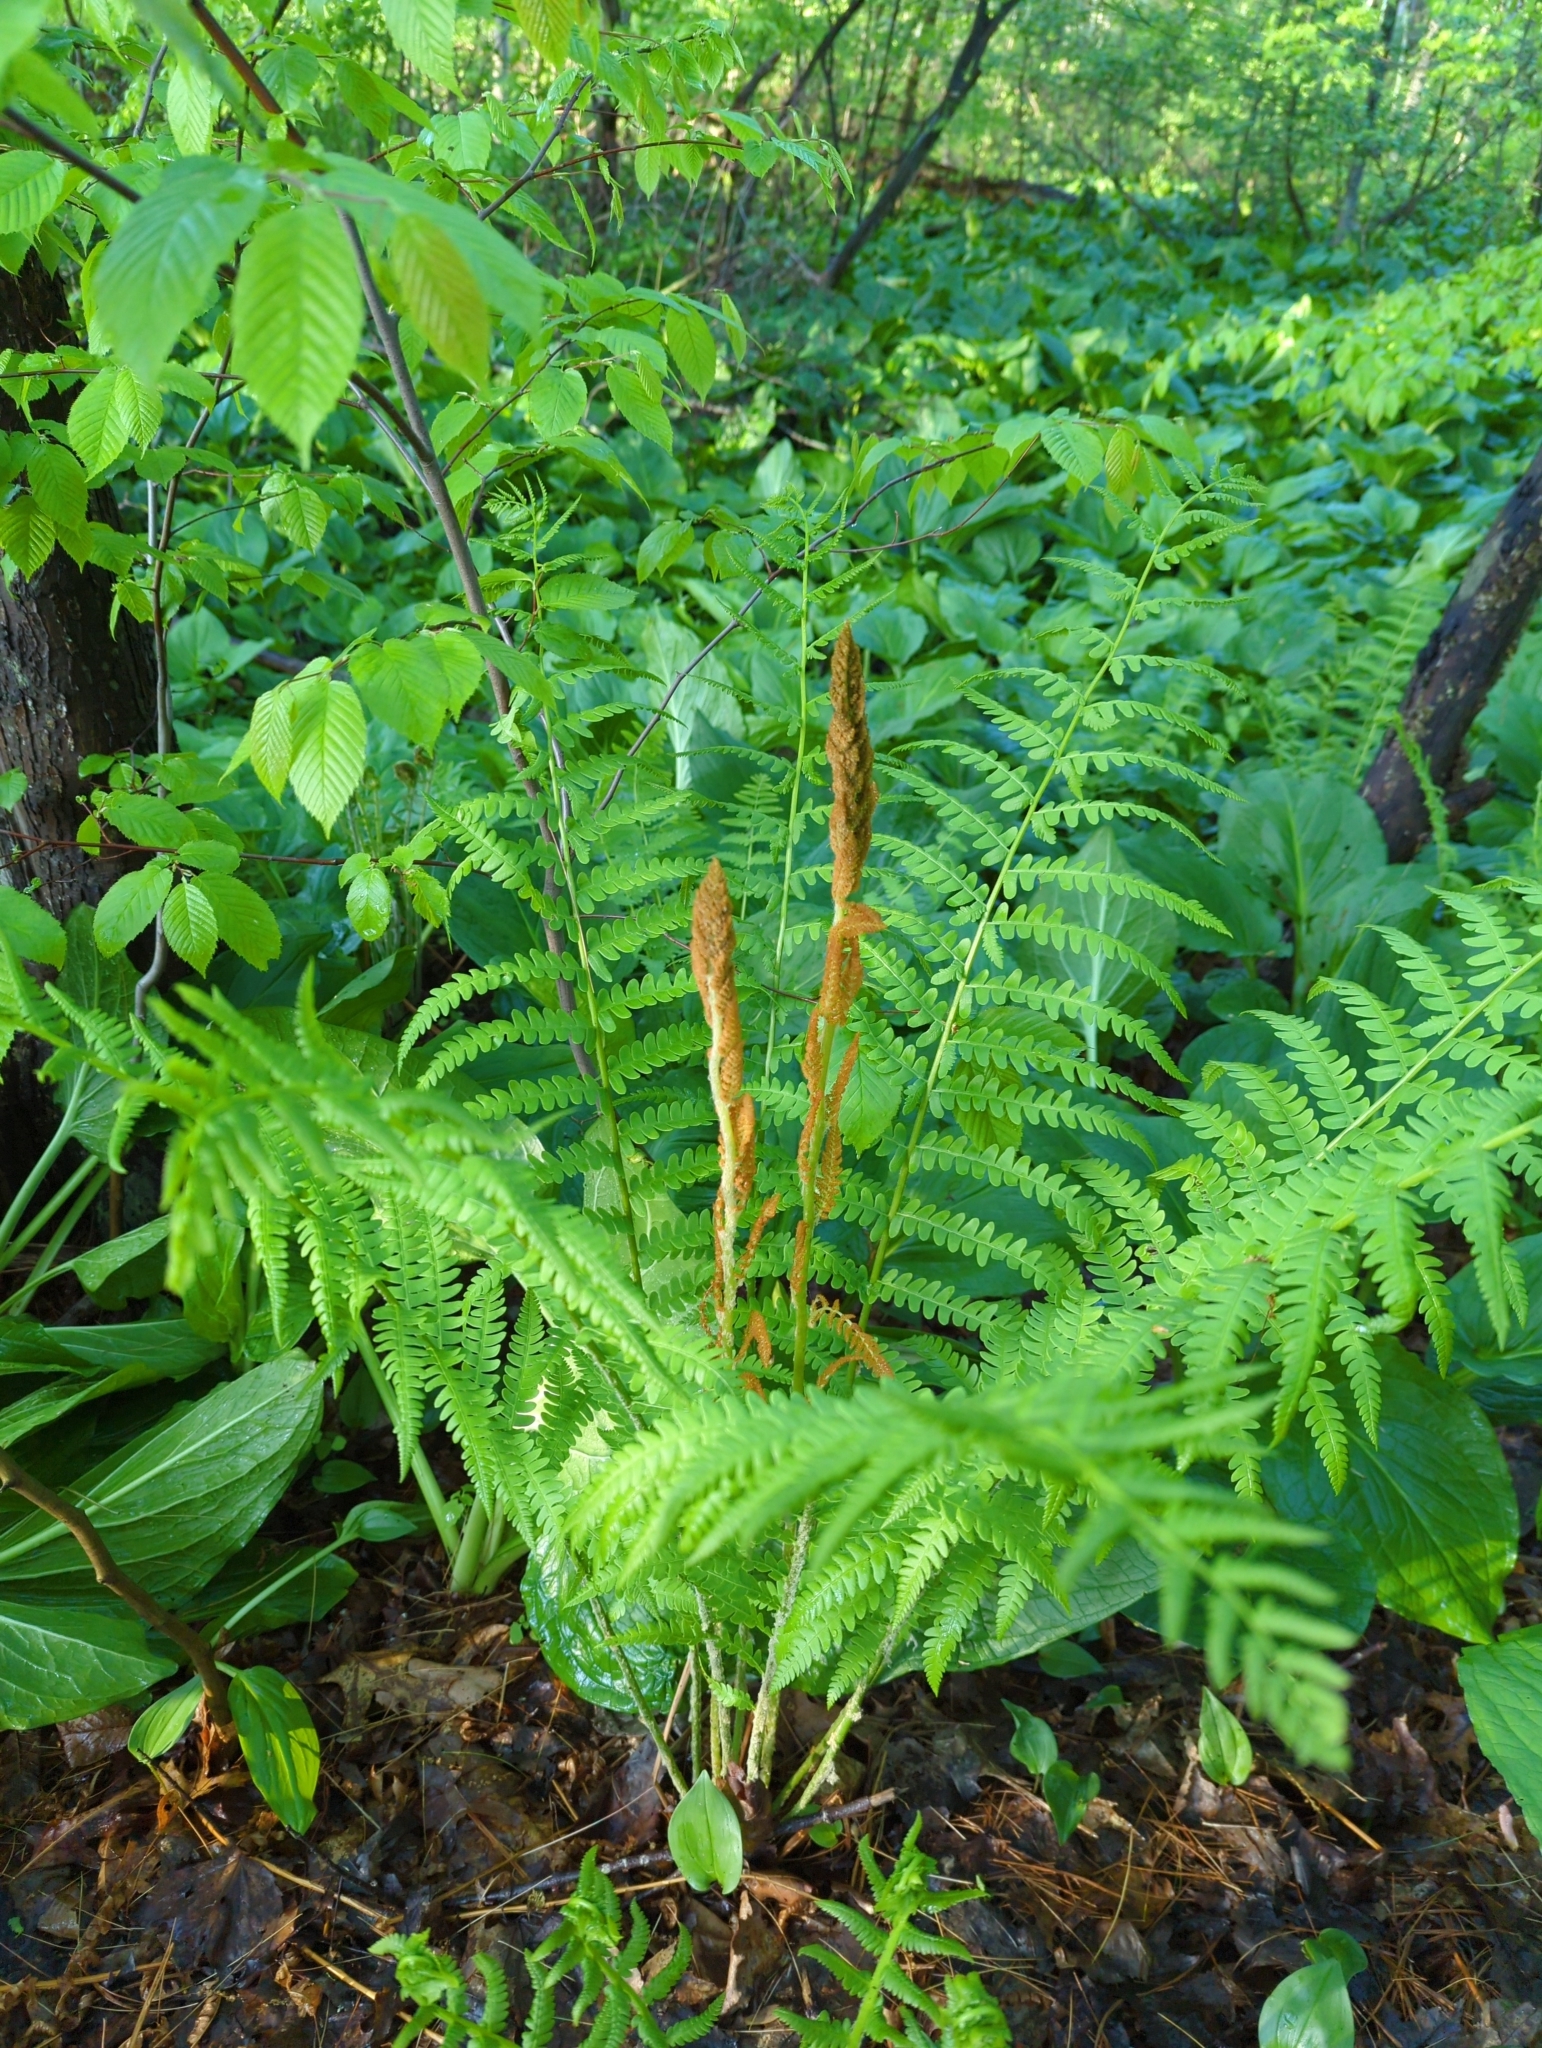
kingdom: Plantae
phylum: Tracheophyta
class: Polypodiopsida
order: Osmundales
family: Osmundaceae
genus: Osmundastrum
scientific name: Osmundastrum cinnamomeum
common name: Cinnamon fern
